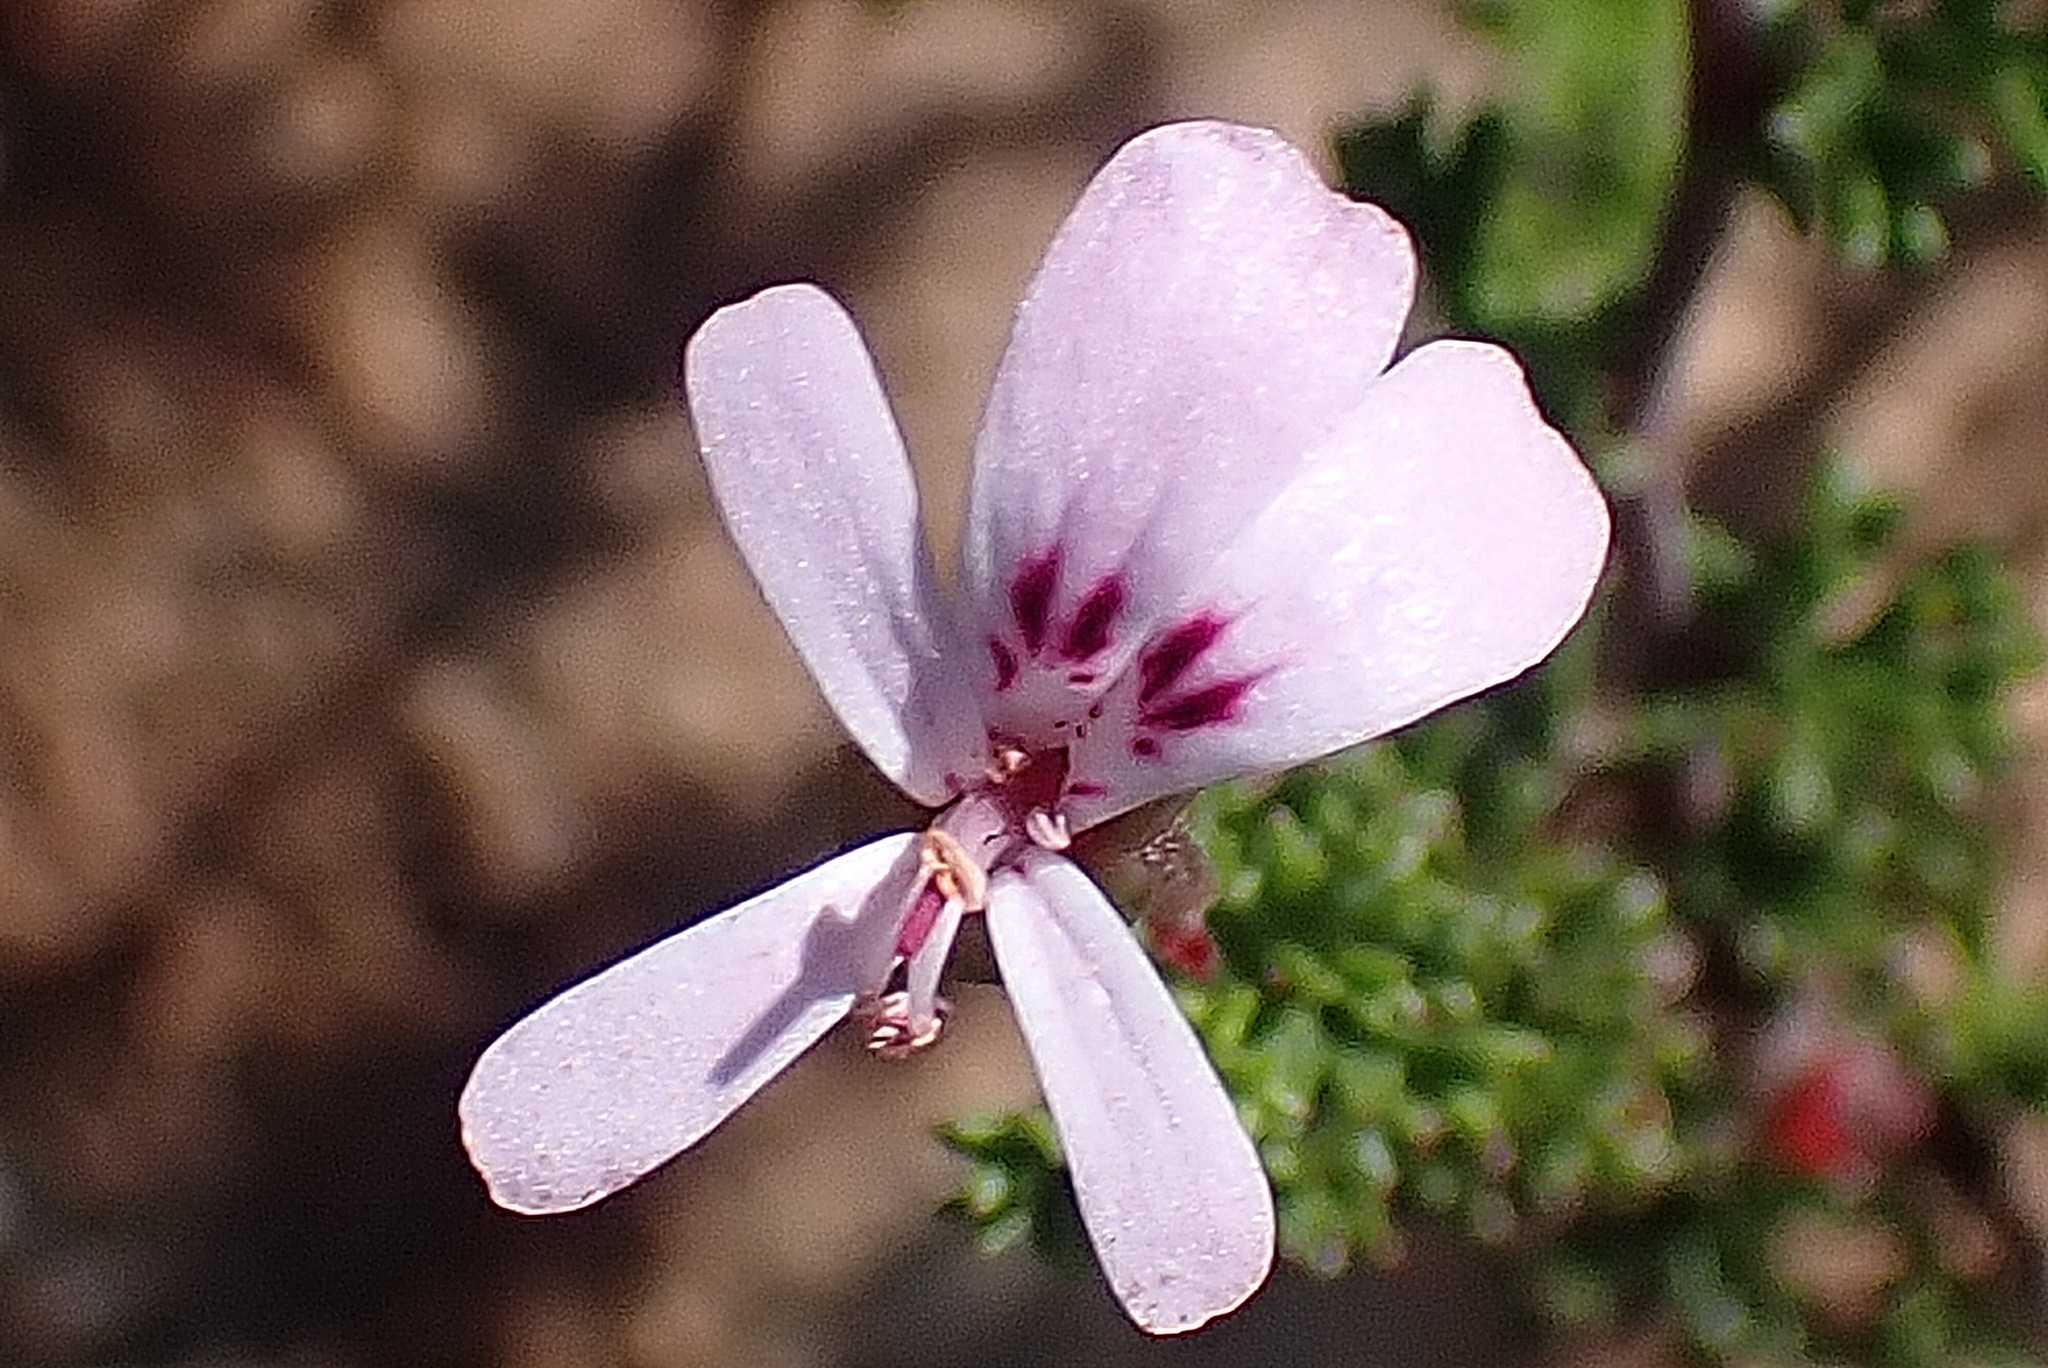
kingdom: Plantae
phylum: Tracheophyta
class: Magnoliopsida
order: Geraniales
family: Geraniaceae
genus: Pelargonium
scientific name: Pelargonium fruticosum
